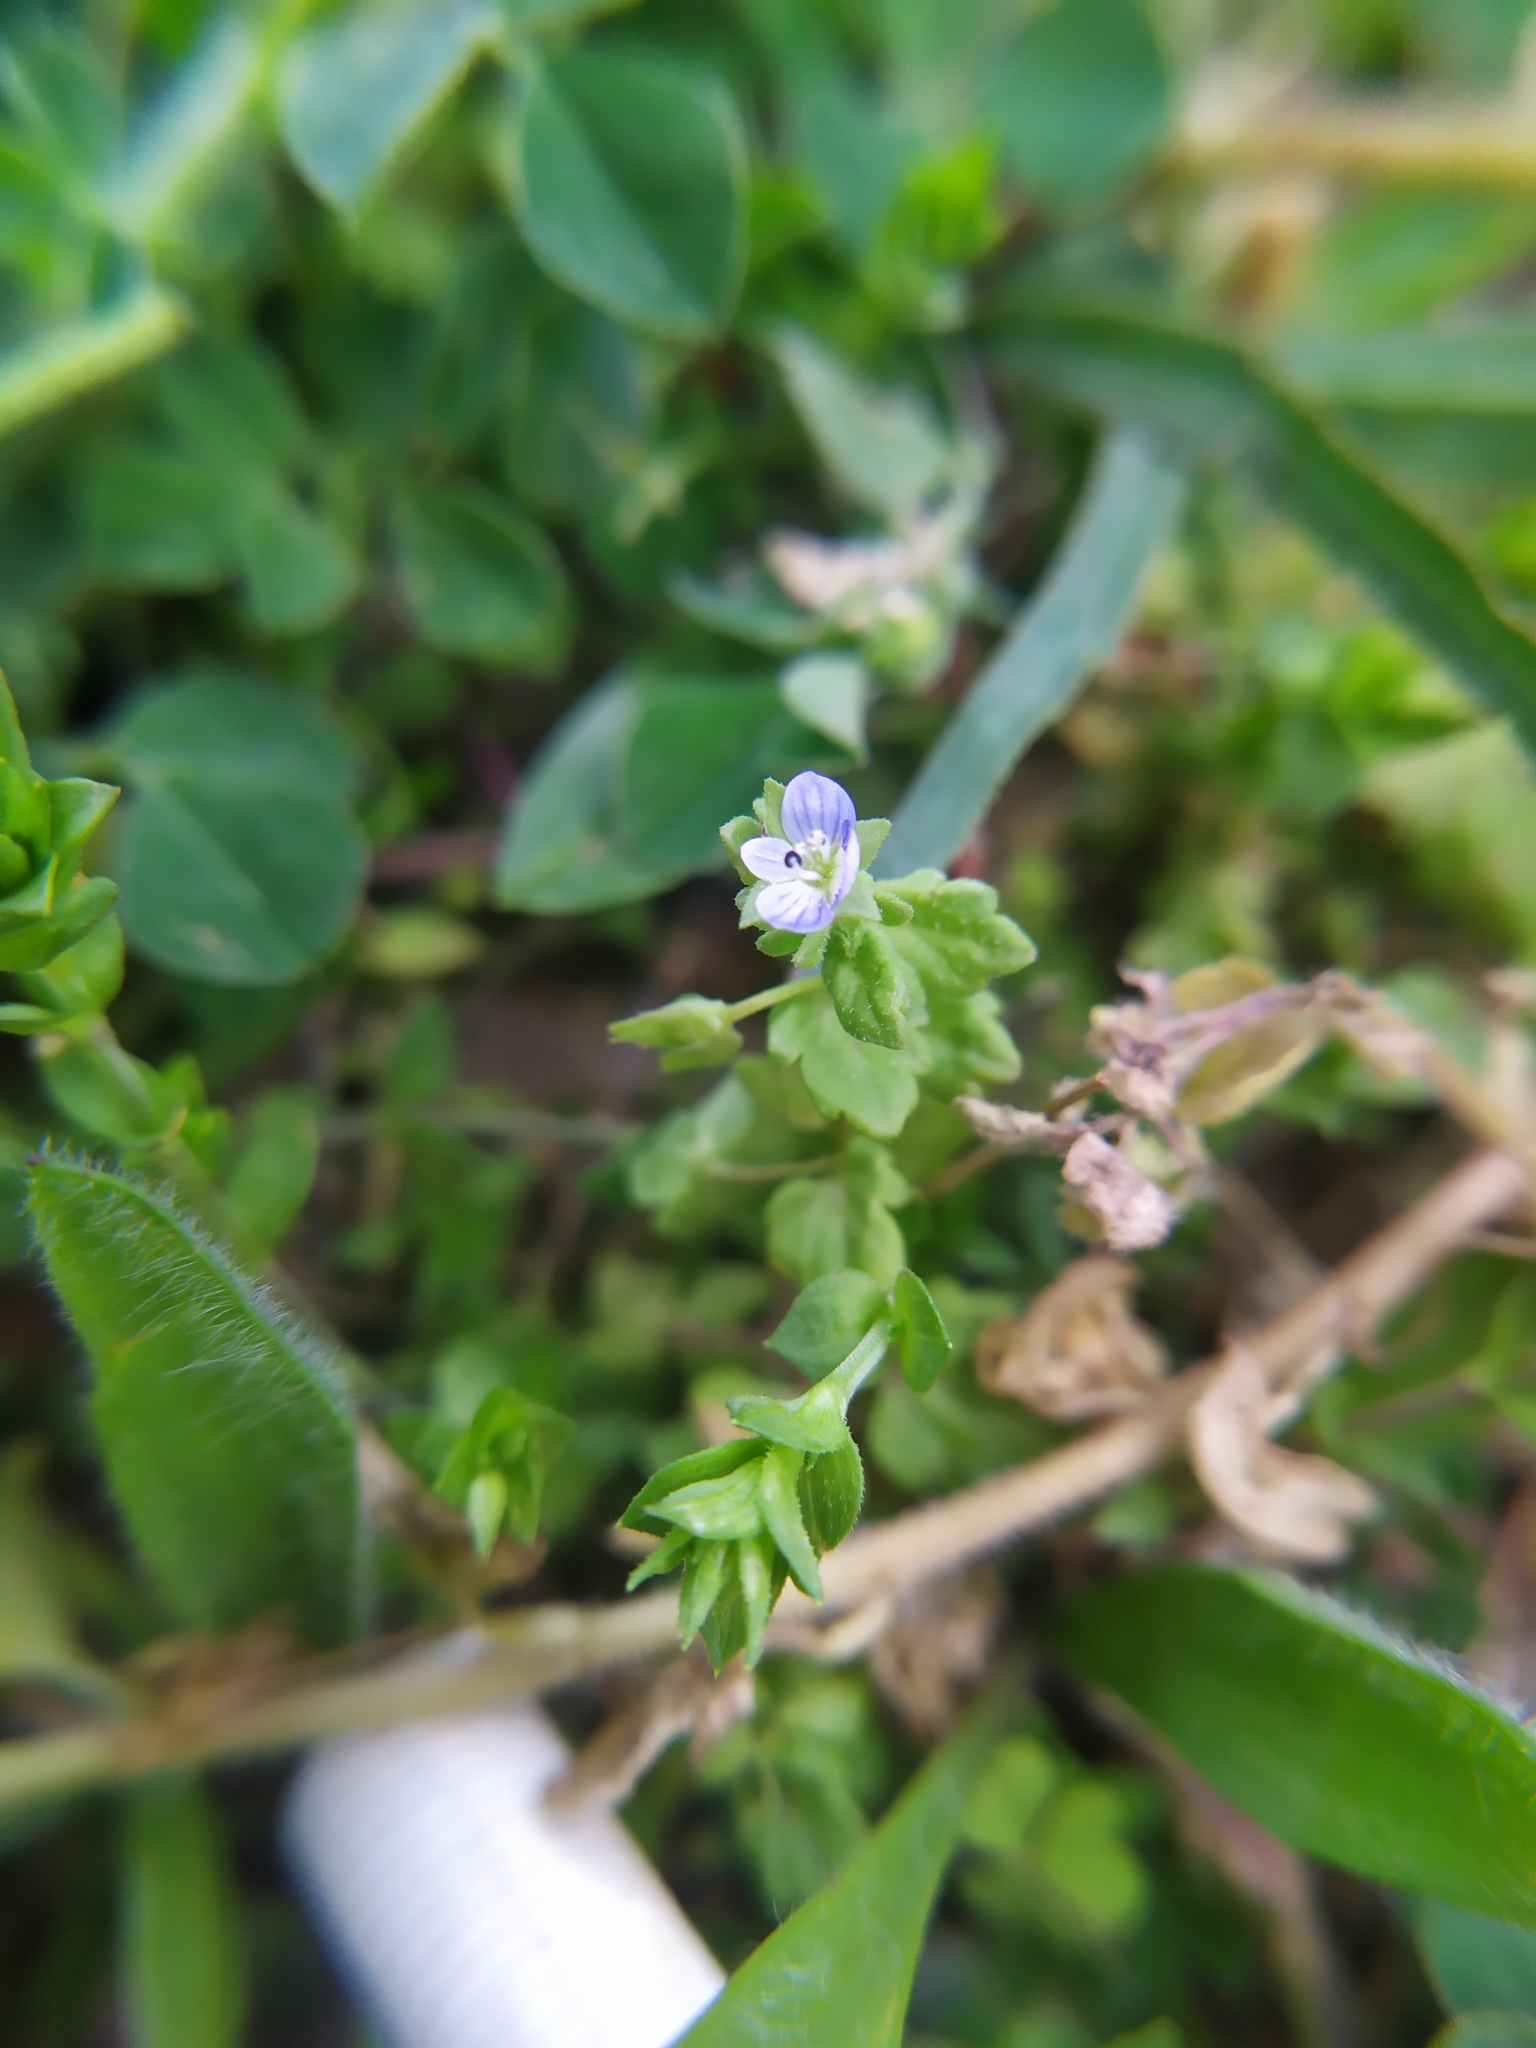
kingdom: Plantae
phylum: Tracheophyta
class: Magnoliopsida
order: Lamiales
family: Plantaginaceae
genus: Veronica
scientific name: Veronica polita
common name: Grey field-speedwell
